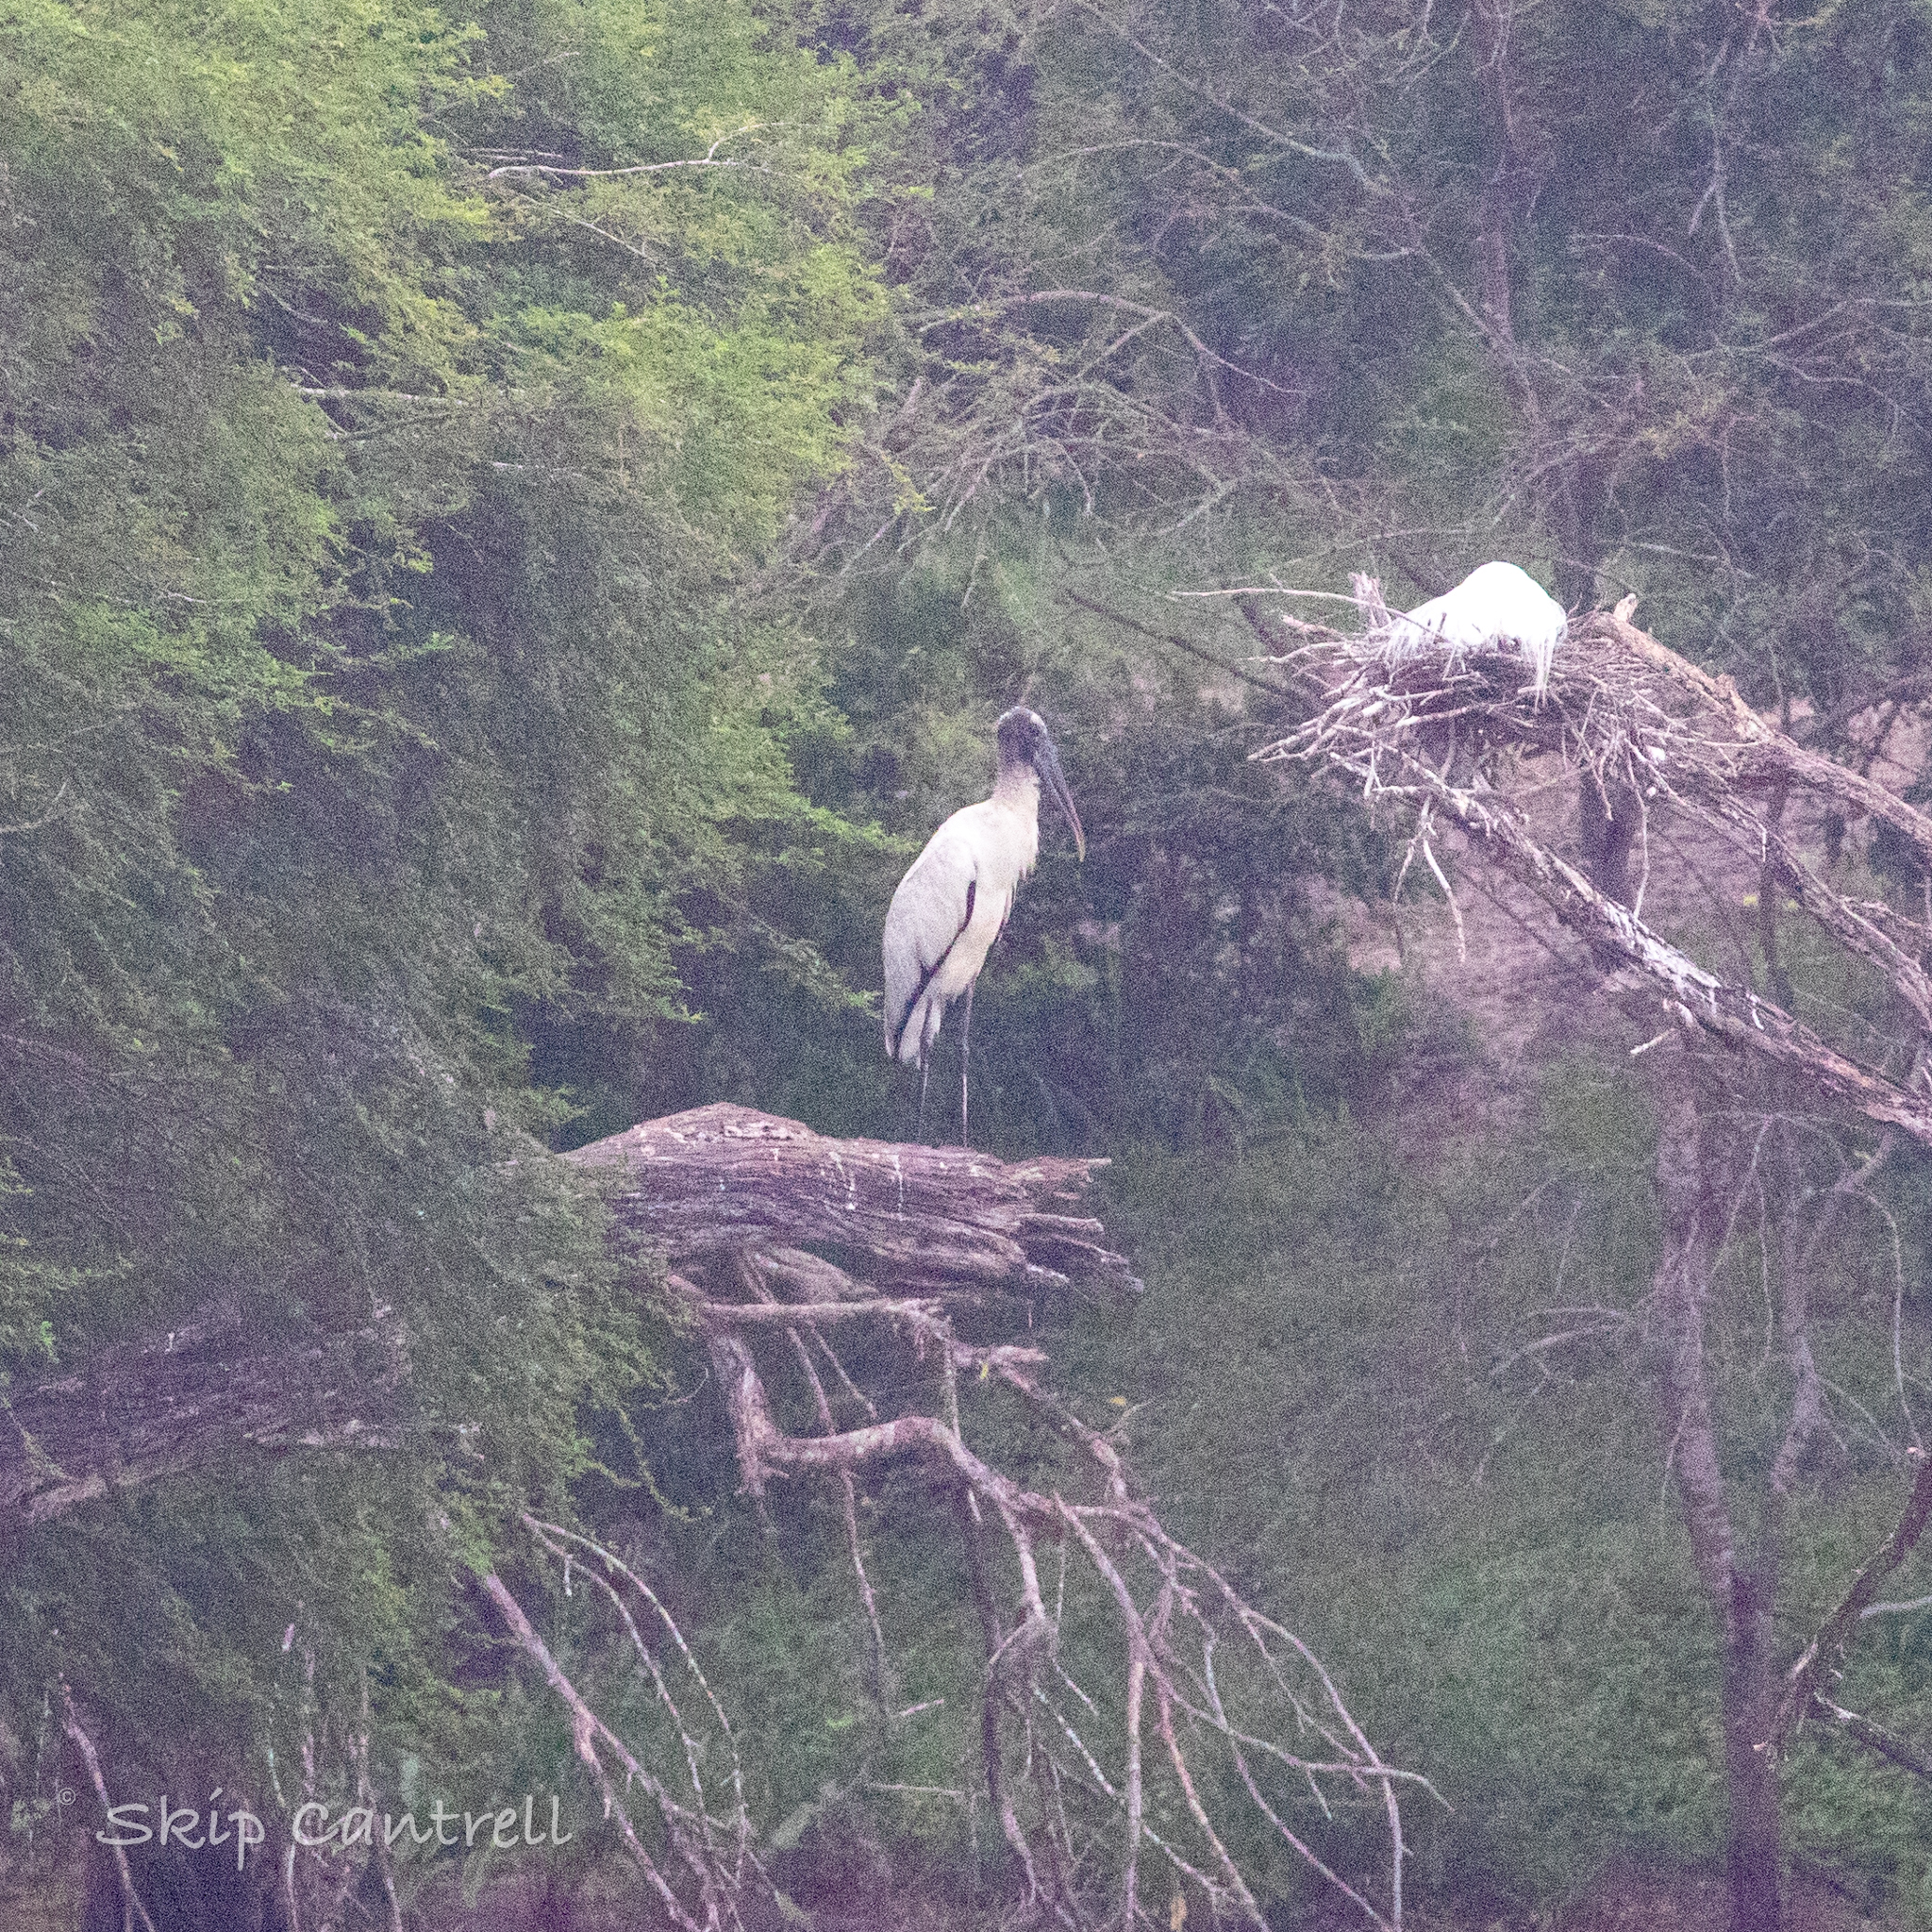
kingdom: Animalia
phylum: Chordata
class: Aves
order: Ciconiiformes
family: Ciconiidae
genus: Mycteria
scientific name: Mycteria americana
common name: Wood stork
